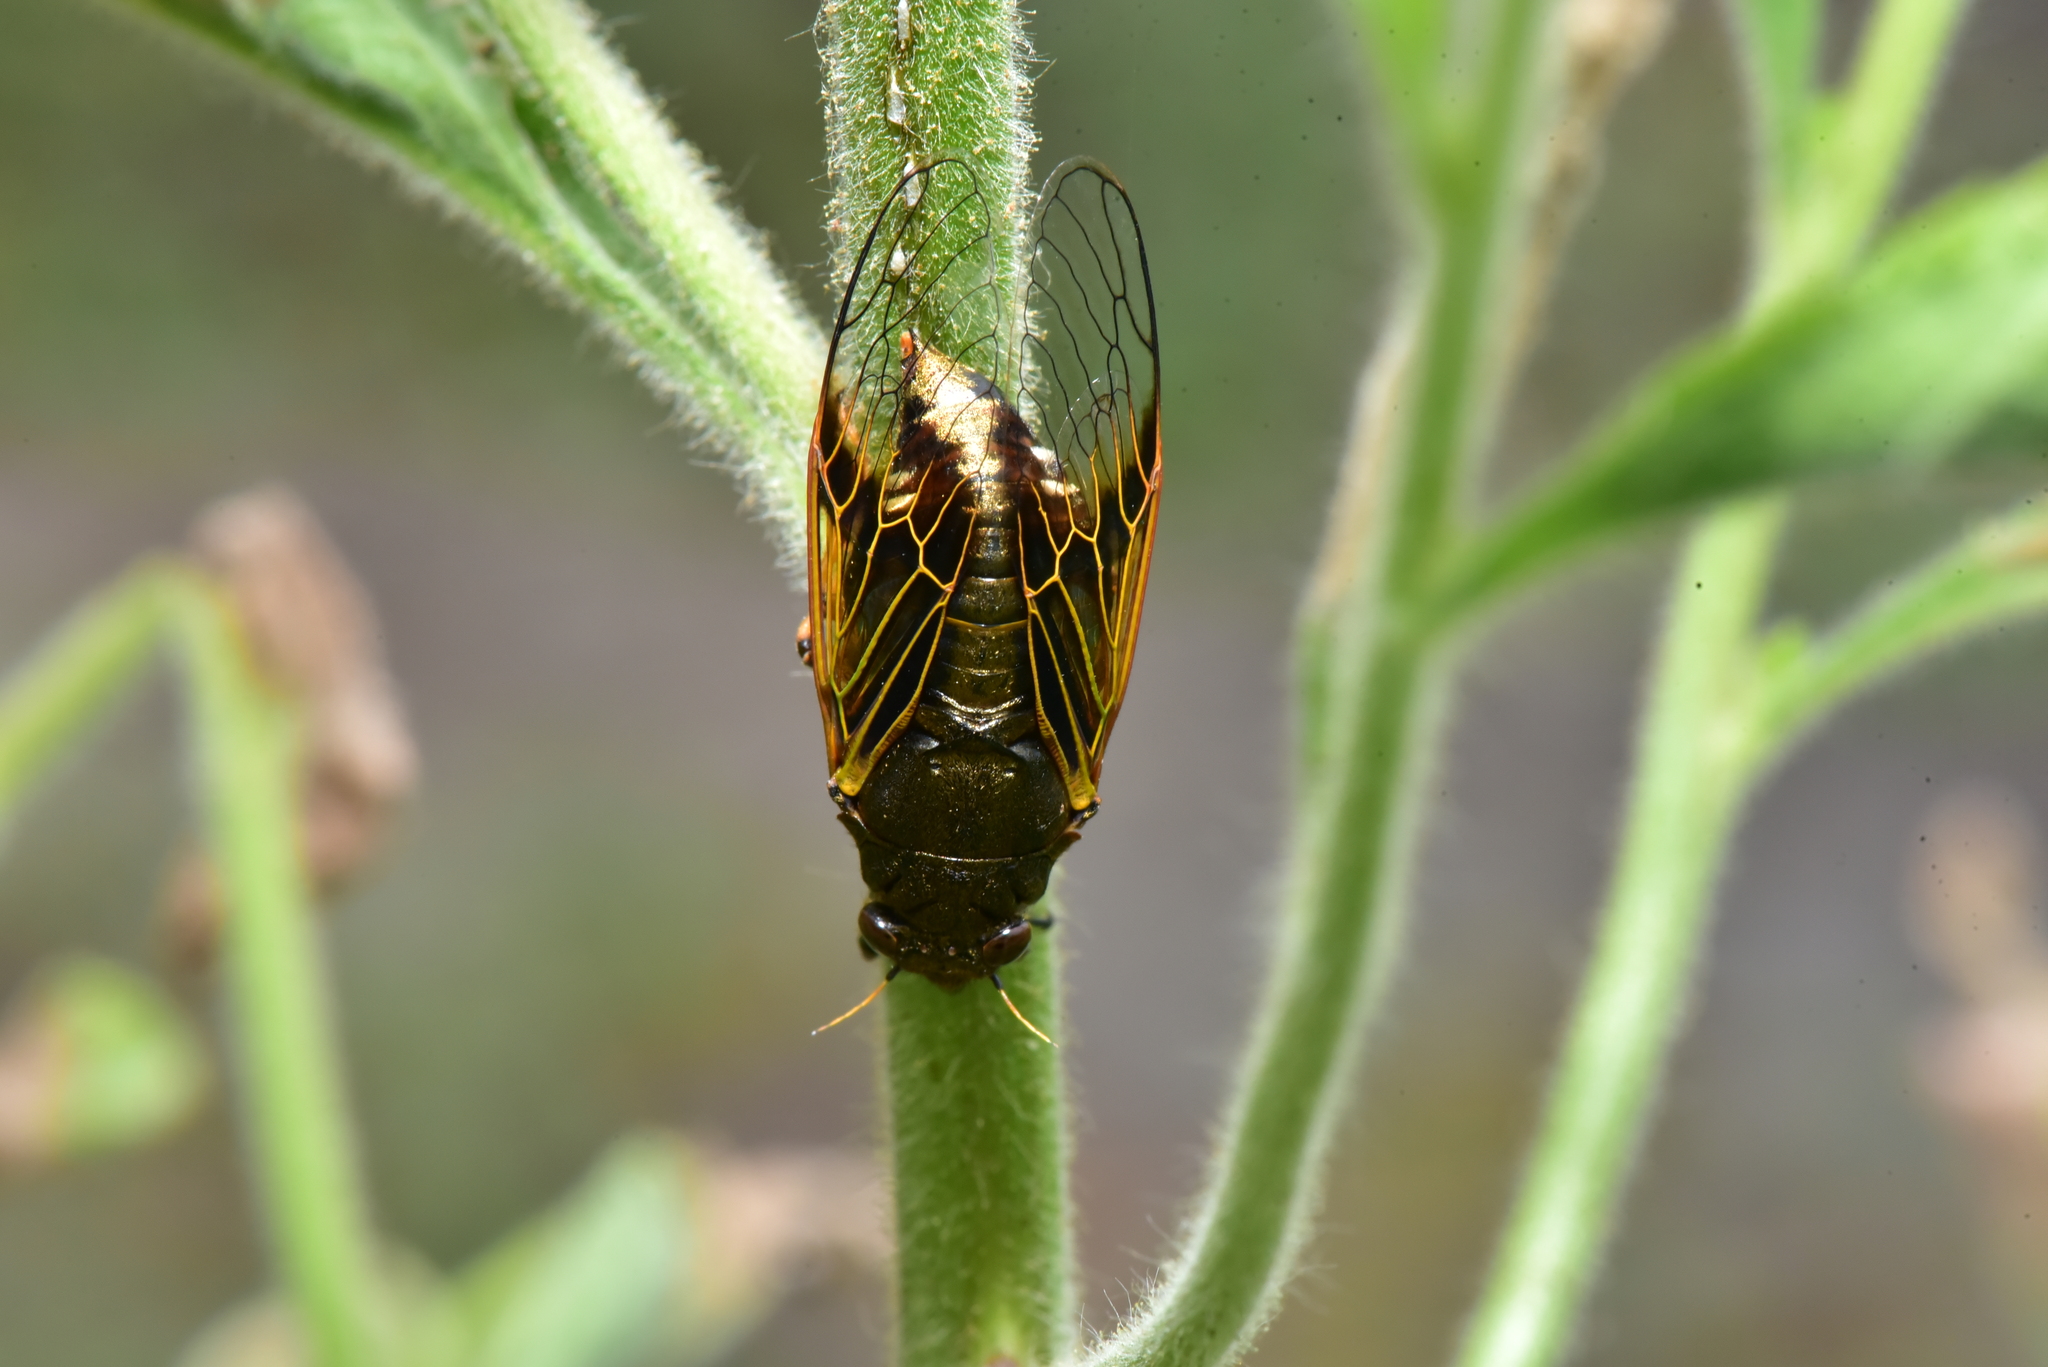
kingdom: Animalia
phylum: Arthropoda
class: Insecta
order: Hemiptera
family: Cicadidae
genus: Mogannia
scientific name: Mogannia formosana
